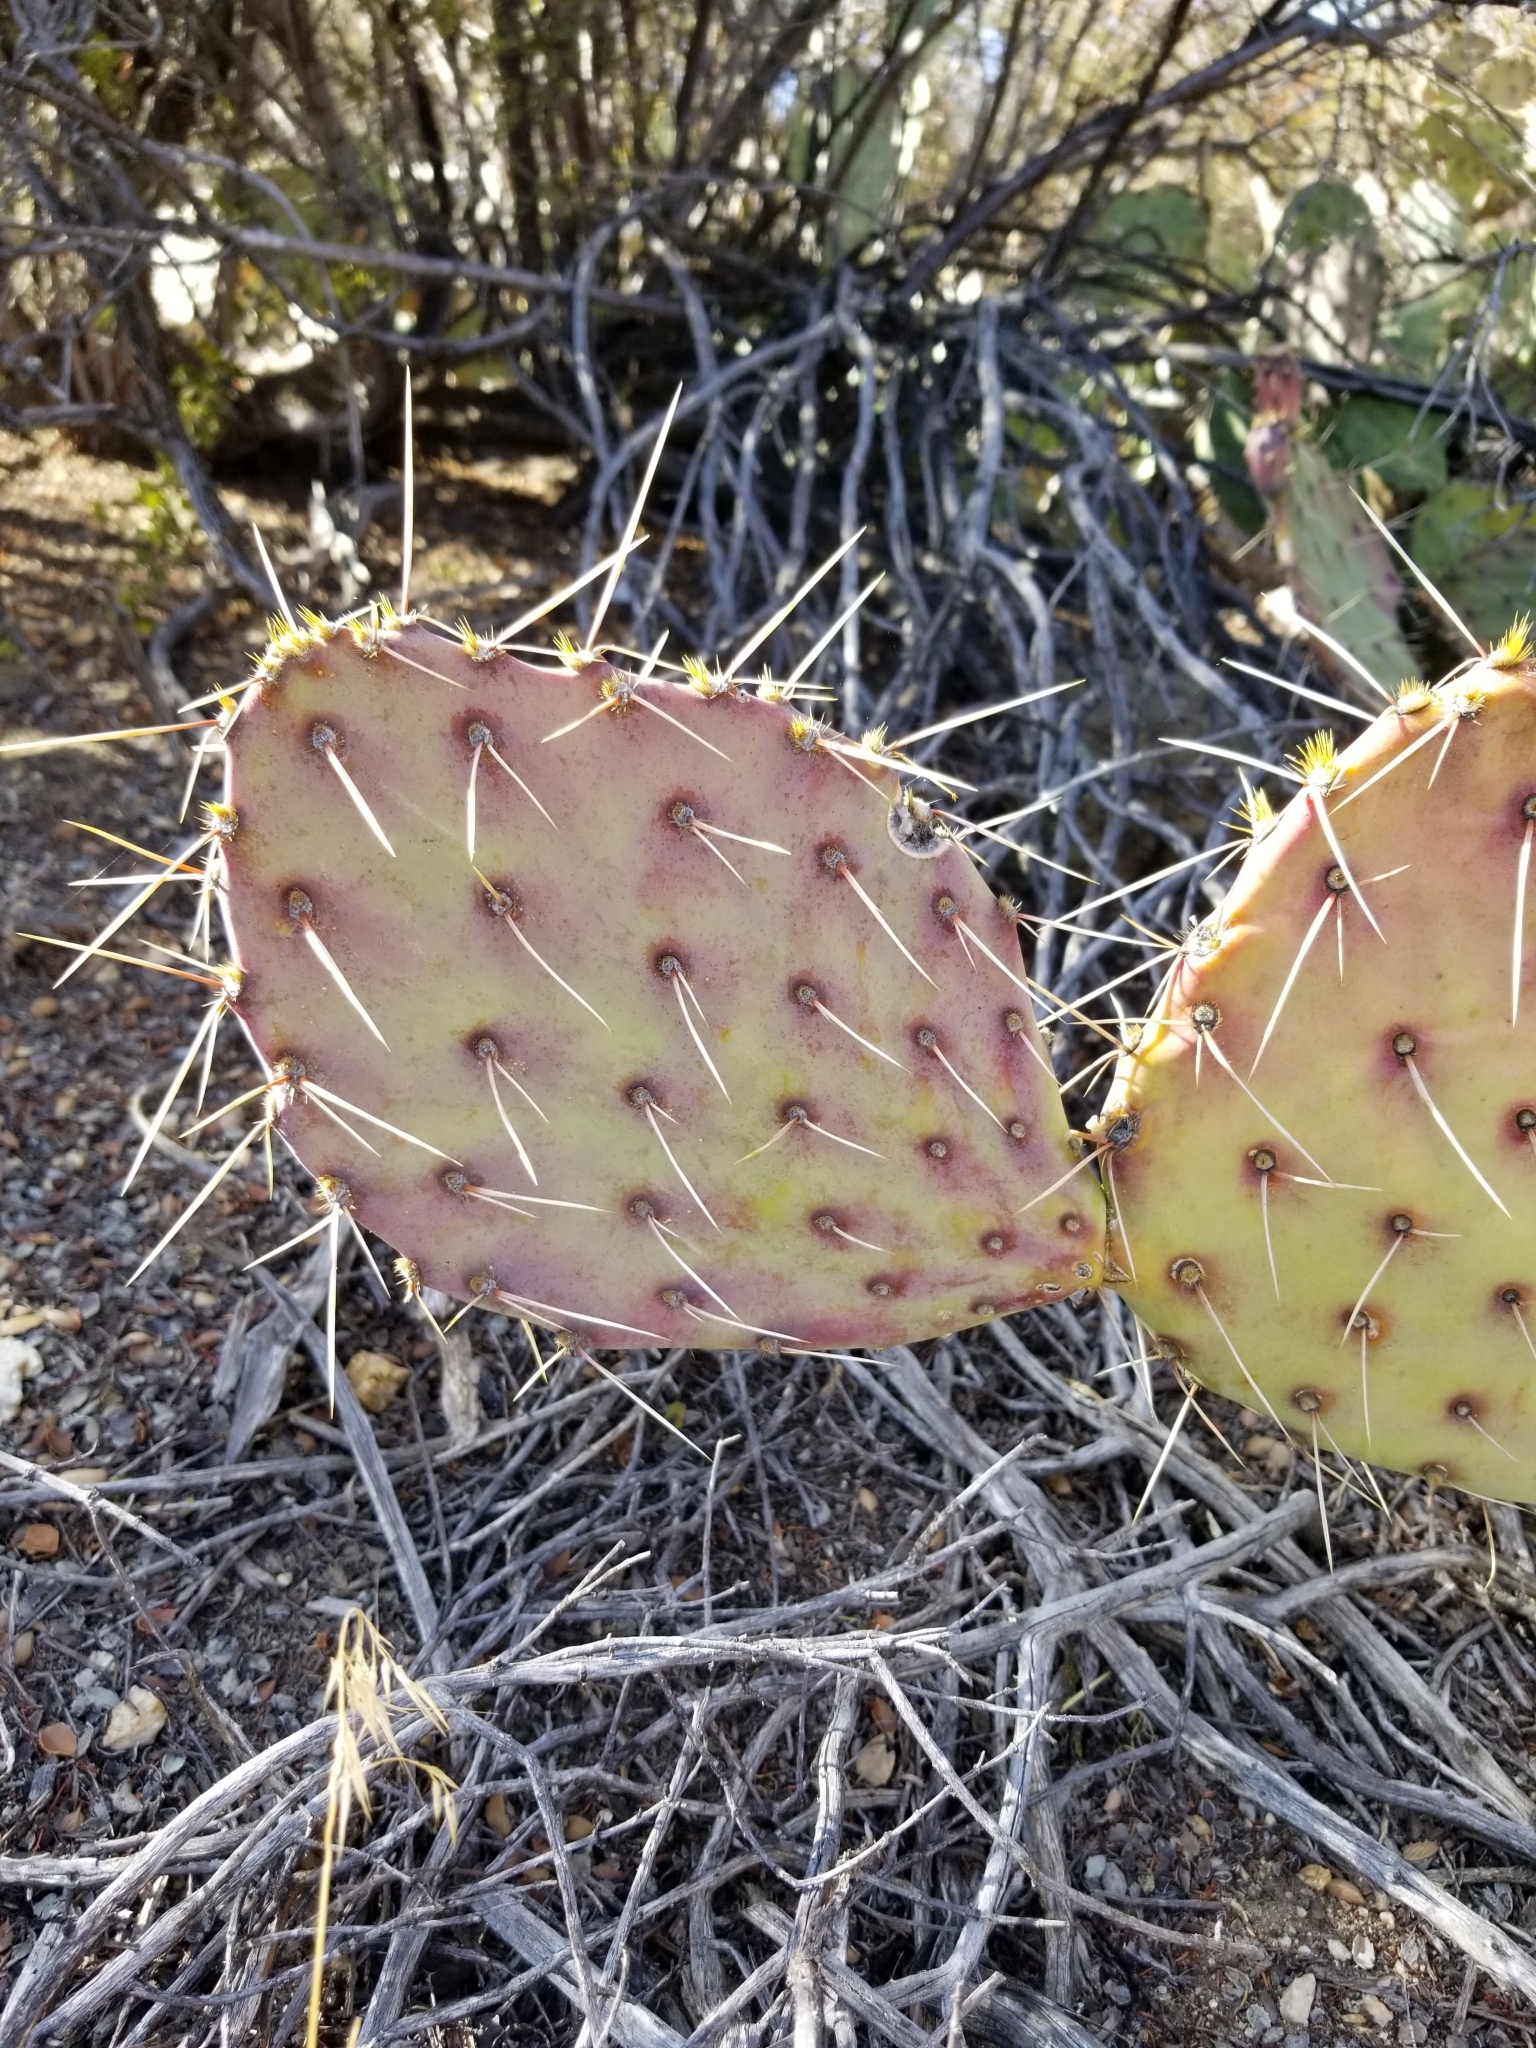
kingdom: Plantae
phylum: Tracheophyta
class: Magnoliopsida
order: Caryophyllales
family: Cactaceae
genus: Opuntia
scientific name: Opuntia phaeacantha
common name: New mexico prickly-pear
